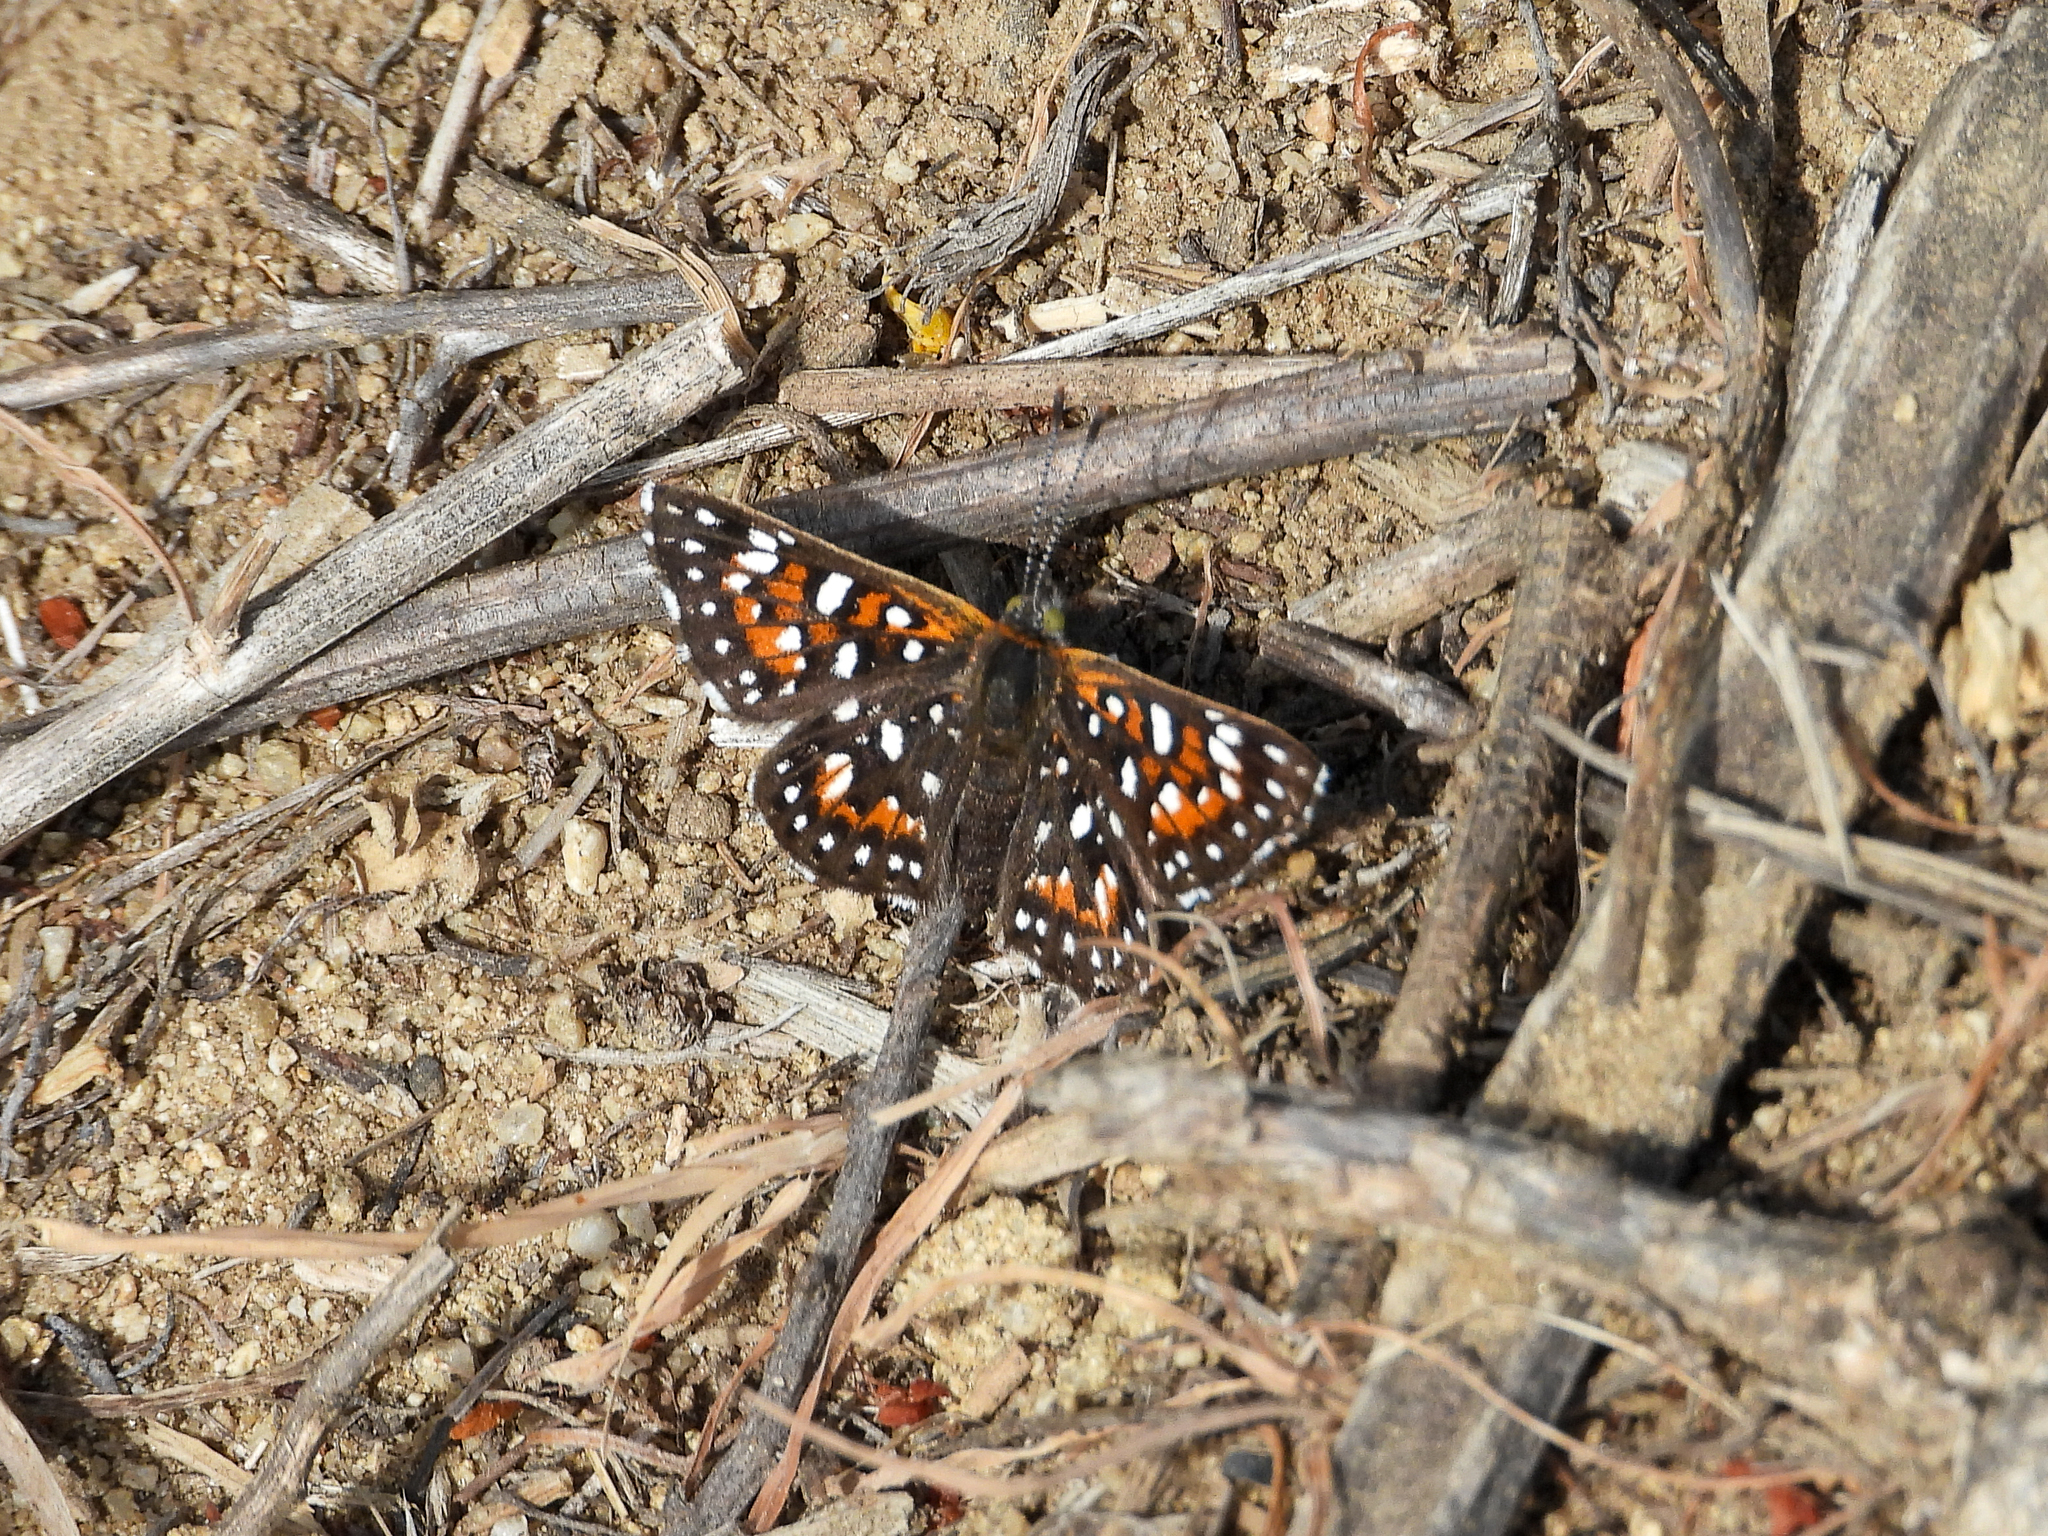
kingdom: Animalia
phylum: Arthropoda
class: Insecta
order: Lepidoptera
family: Riodinidae
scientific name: Riodinidae
